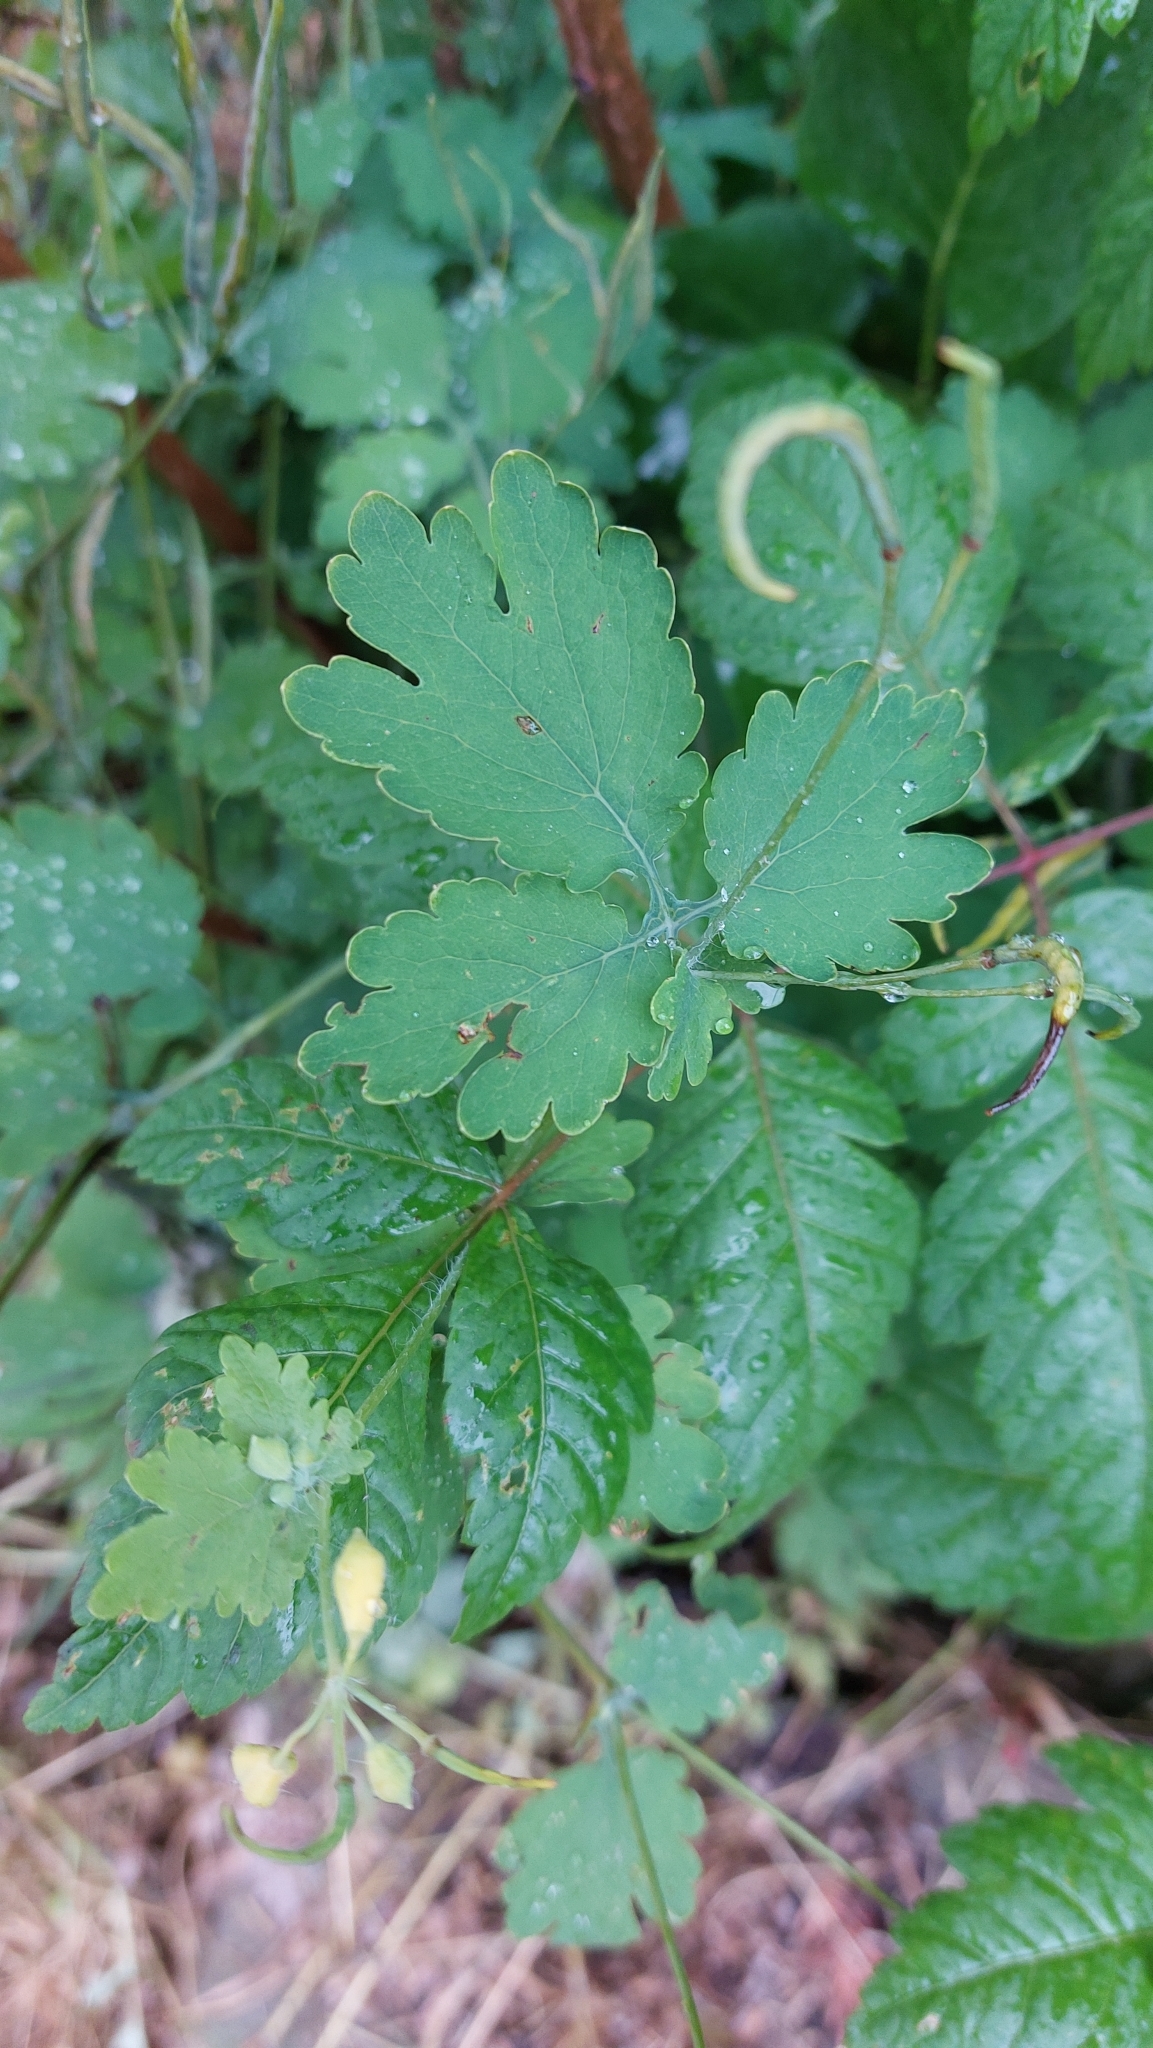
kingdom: Plantae
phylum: Tracheophyta
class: Magnoliopsida
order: Ranunculales
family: Papaveraceae
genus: Chelidonium
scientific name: Chelidonium majus
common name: Greater celandine
